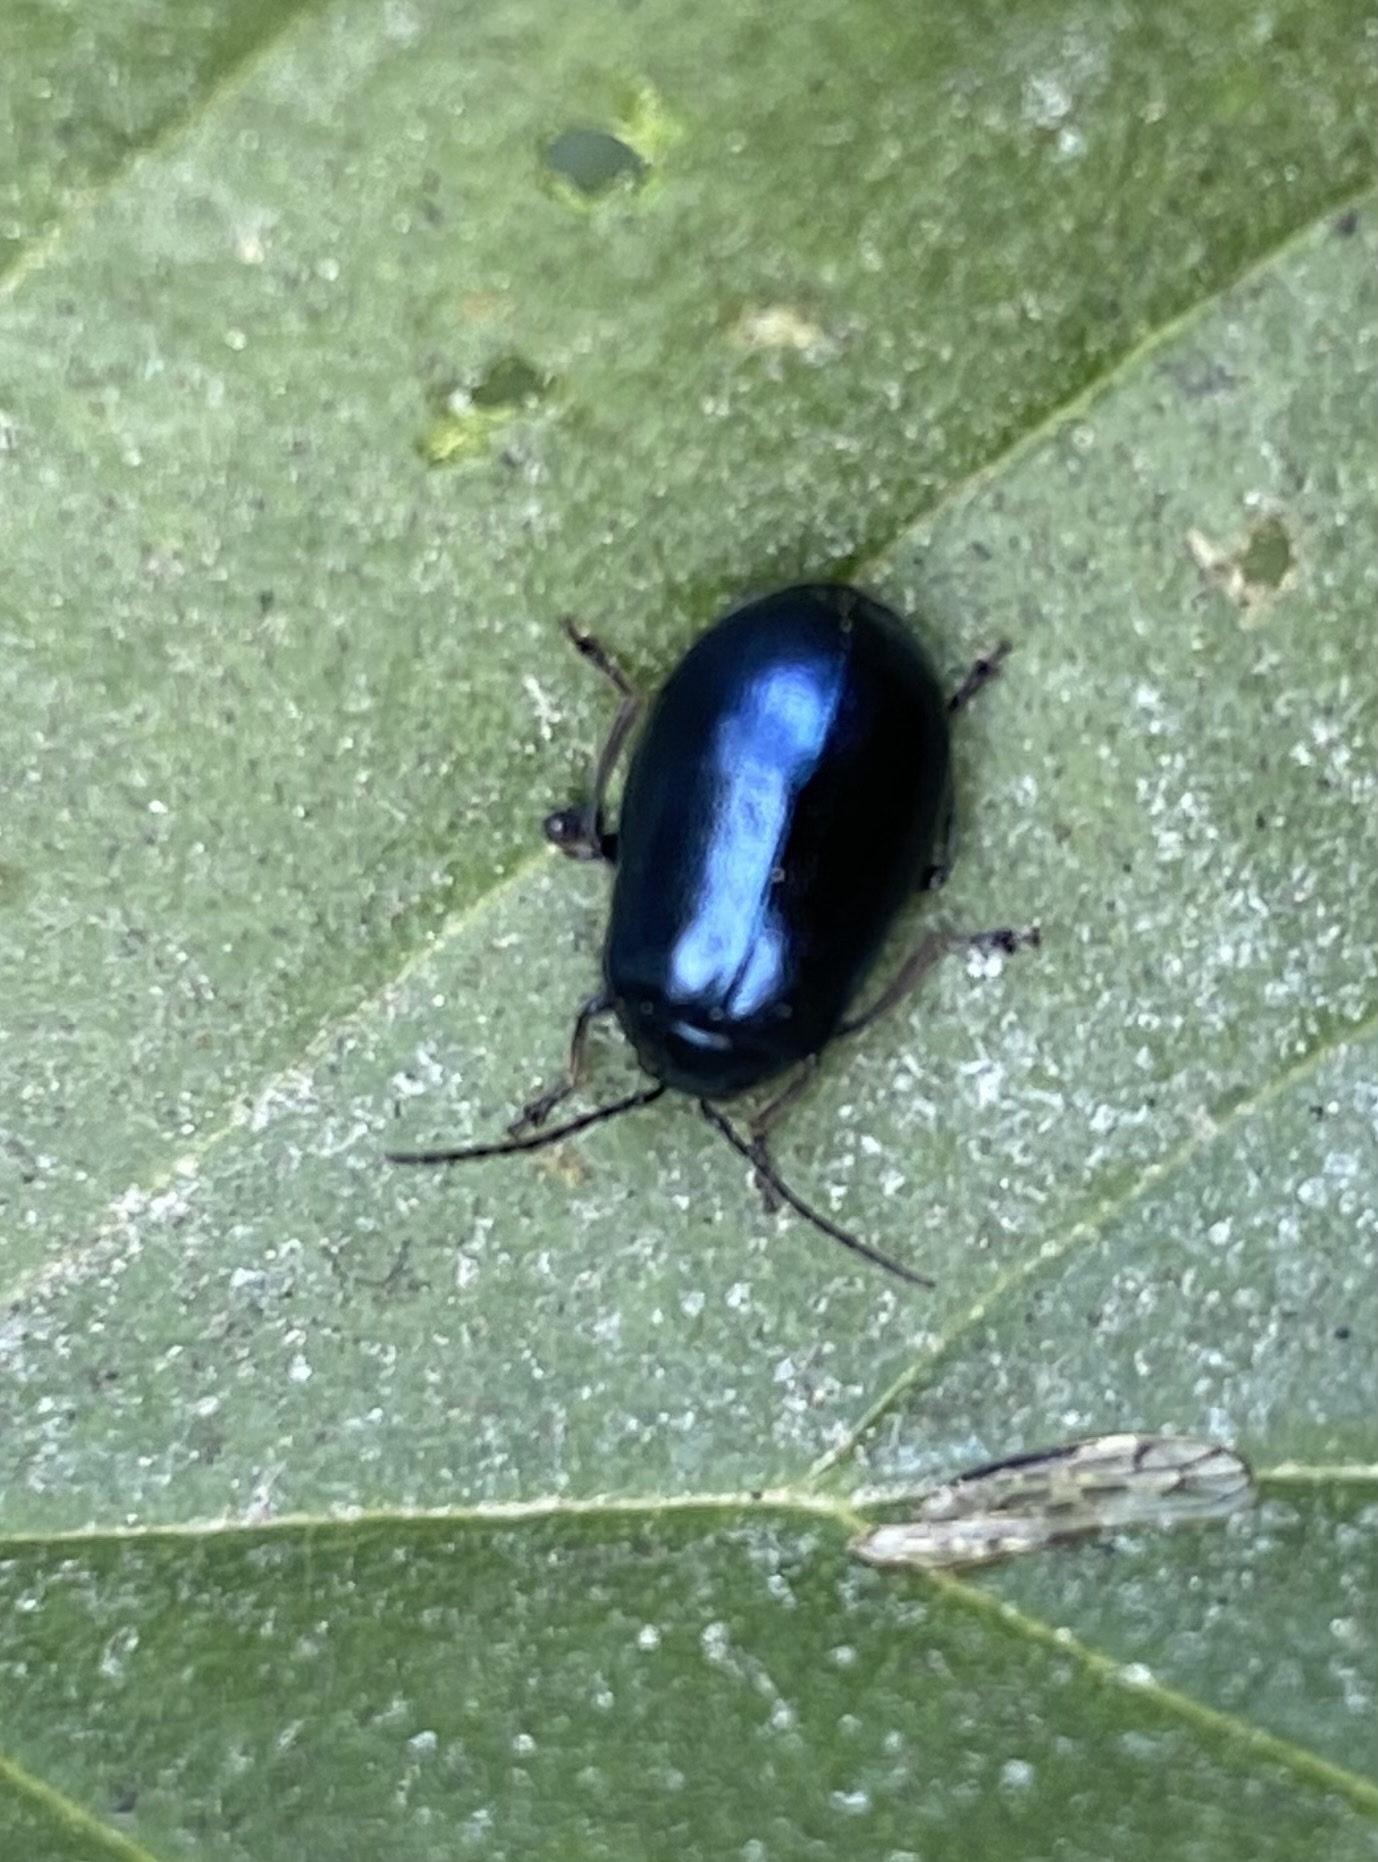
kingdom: Animalia
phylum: Arthropoda
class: Insecta
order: Coleoptera
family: Chrysomelidae
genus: Agelastica
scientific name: Agelastica alni
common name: Alder leaf beetle
